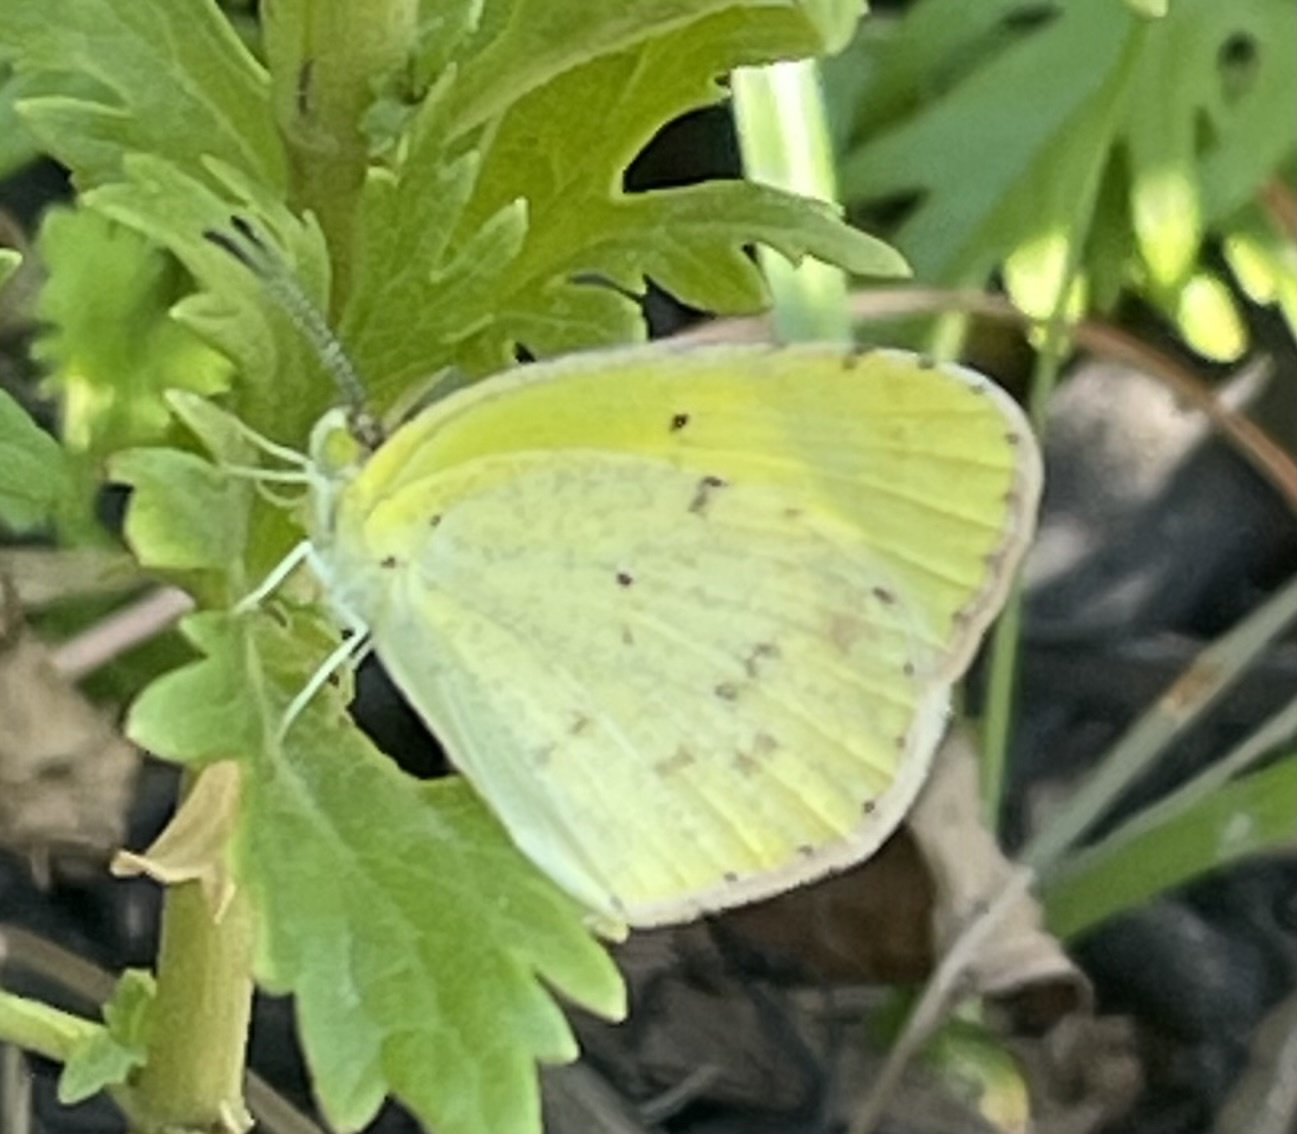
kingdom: Animalia
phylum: Arthropoda
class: Insecta
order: Lepidoptera
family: Pieridae
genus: Pyrisitia
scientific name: Pyrisitia lisa
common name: Little yellow
